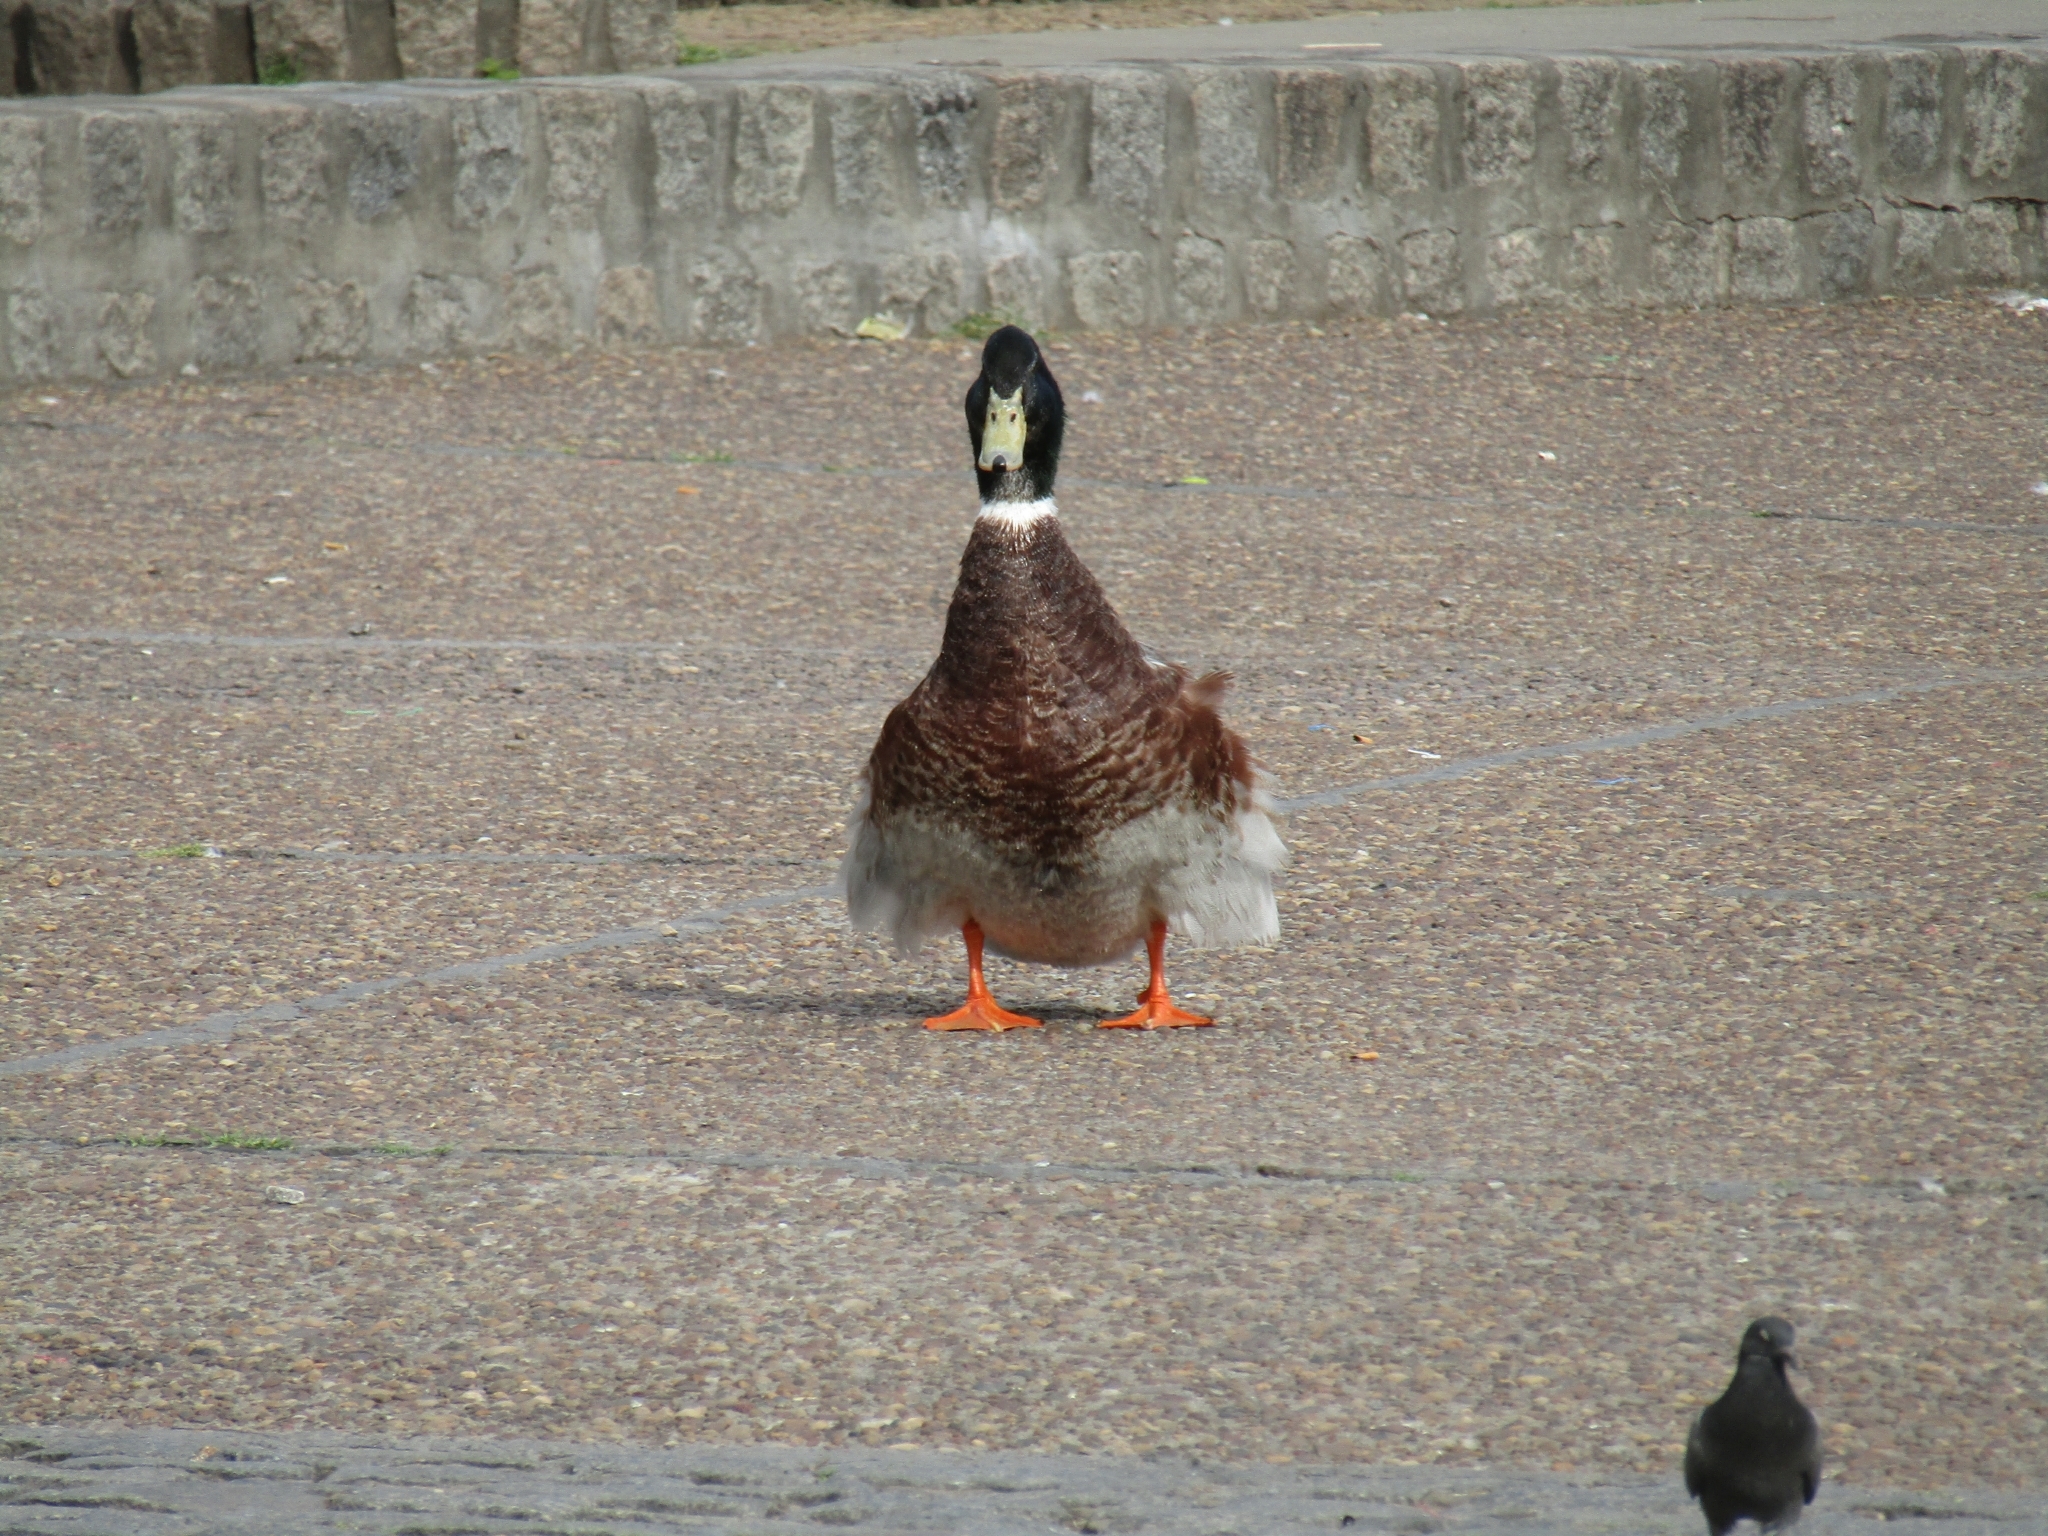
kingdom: Animalia
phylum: Chordata
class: Aves
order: Anseriformes
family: Anatidae
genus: Anas
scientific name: Anas platyrhynchos
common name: Mallard
